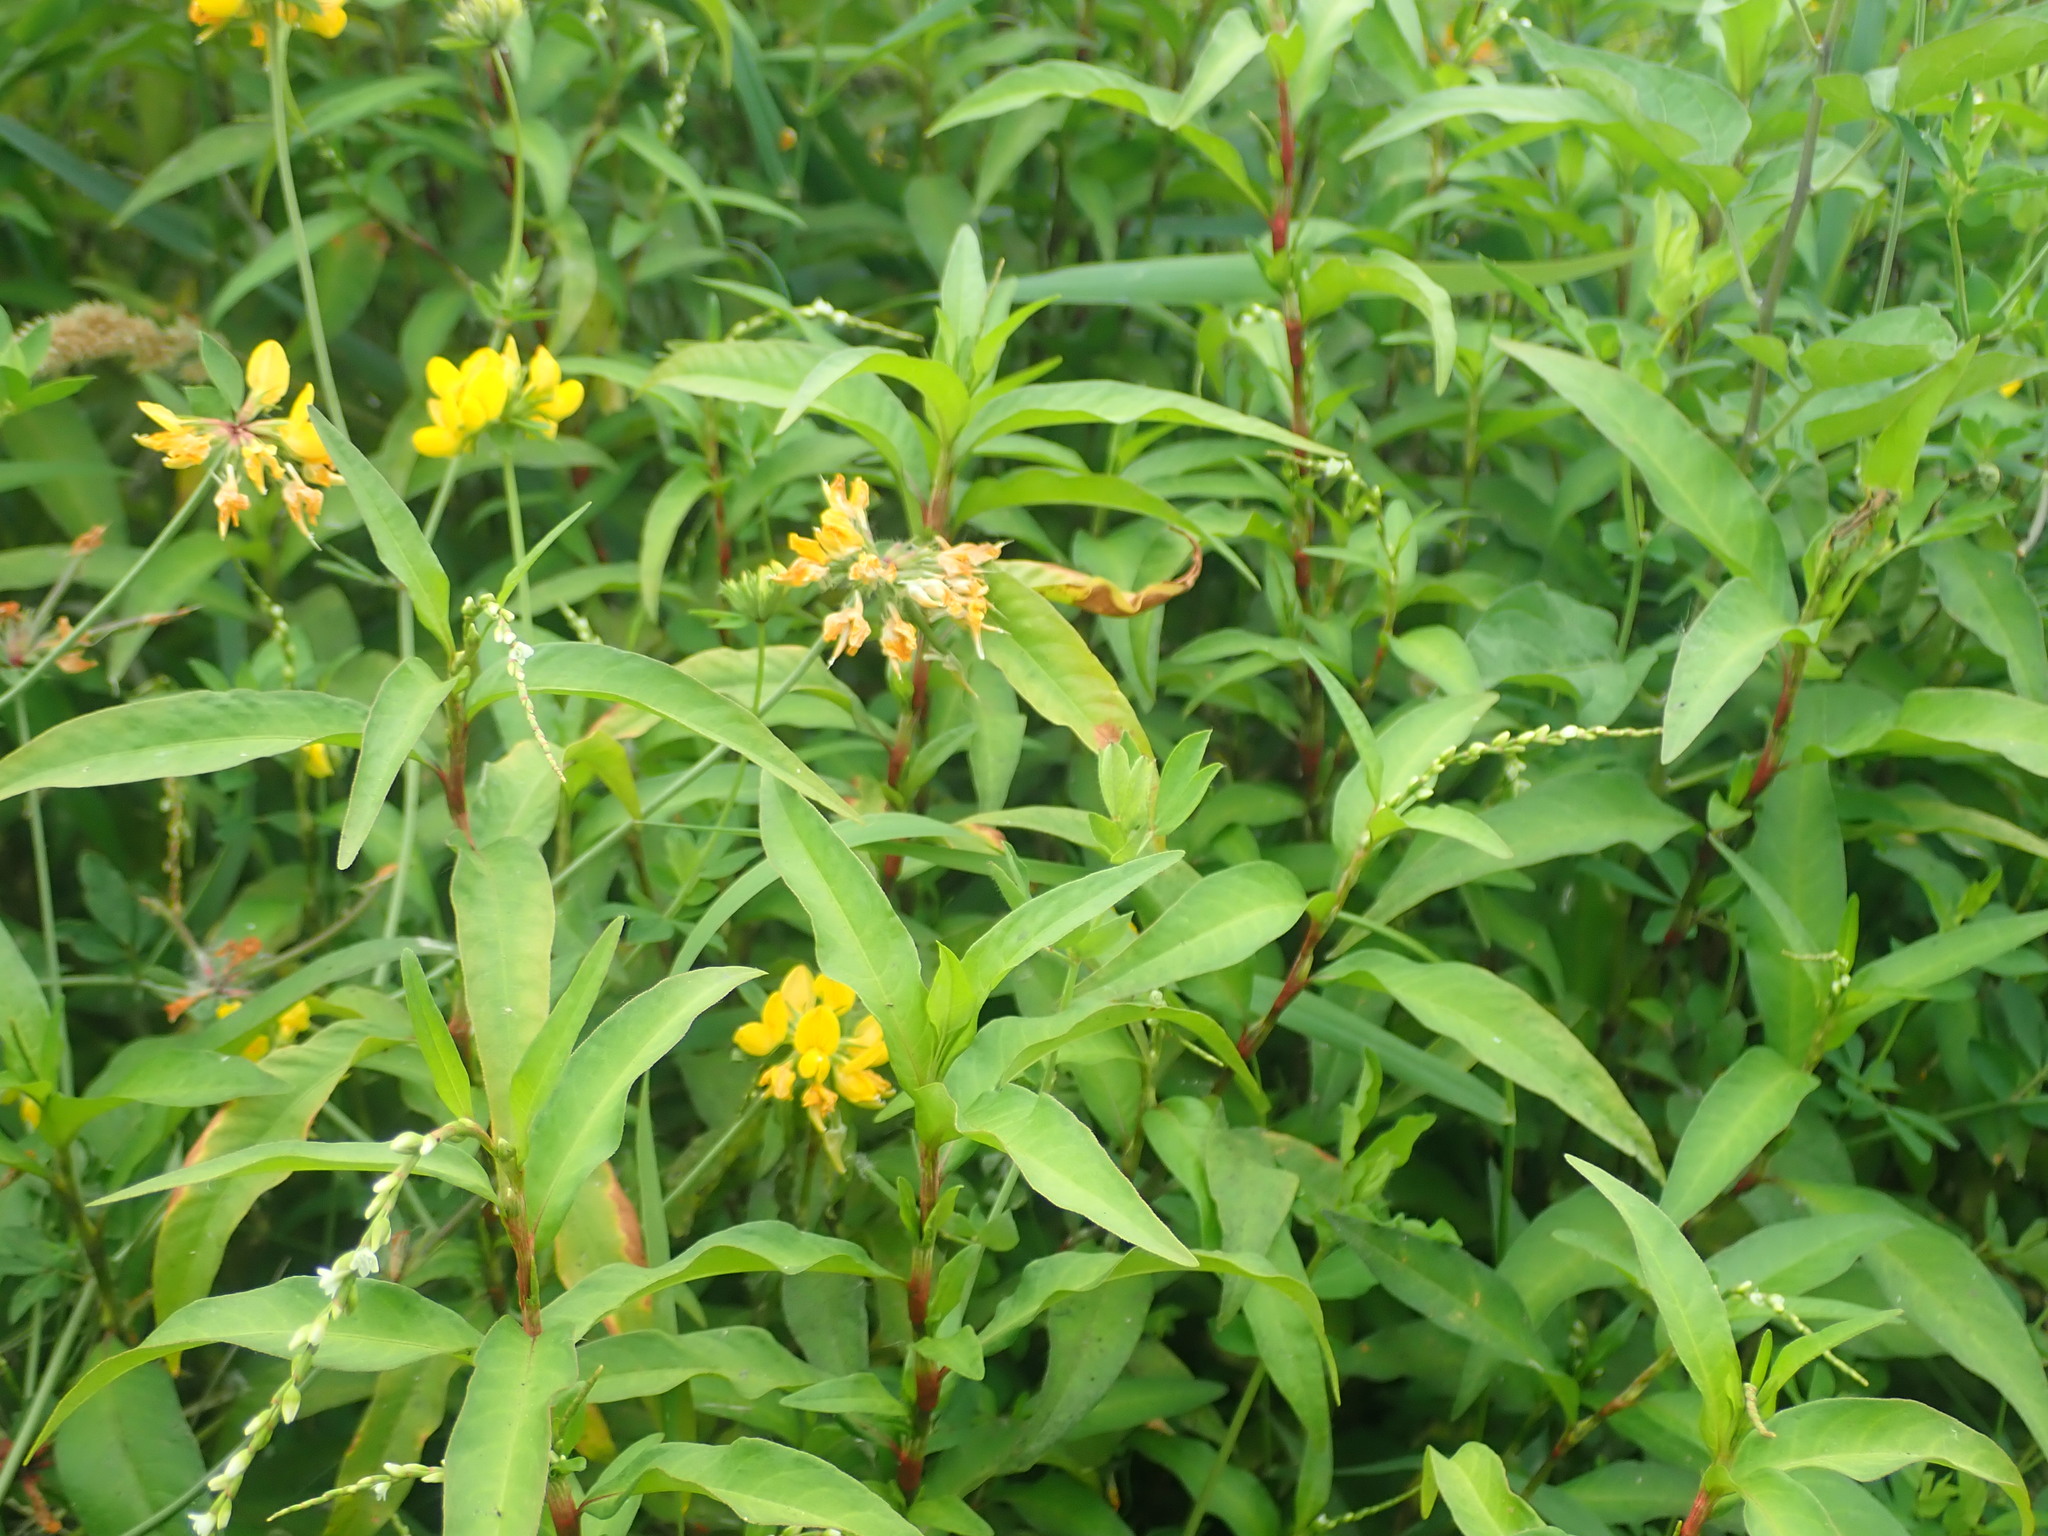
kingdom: Plantae
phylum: Tracheophyta
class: Magnoliopsida
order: Caryophyllales
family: Polygonaceae
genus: Persicaria
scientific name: Persicaria punctata
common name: Dotted smartweed
